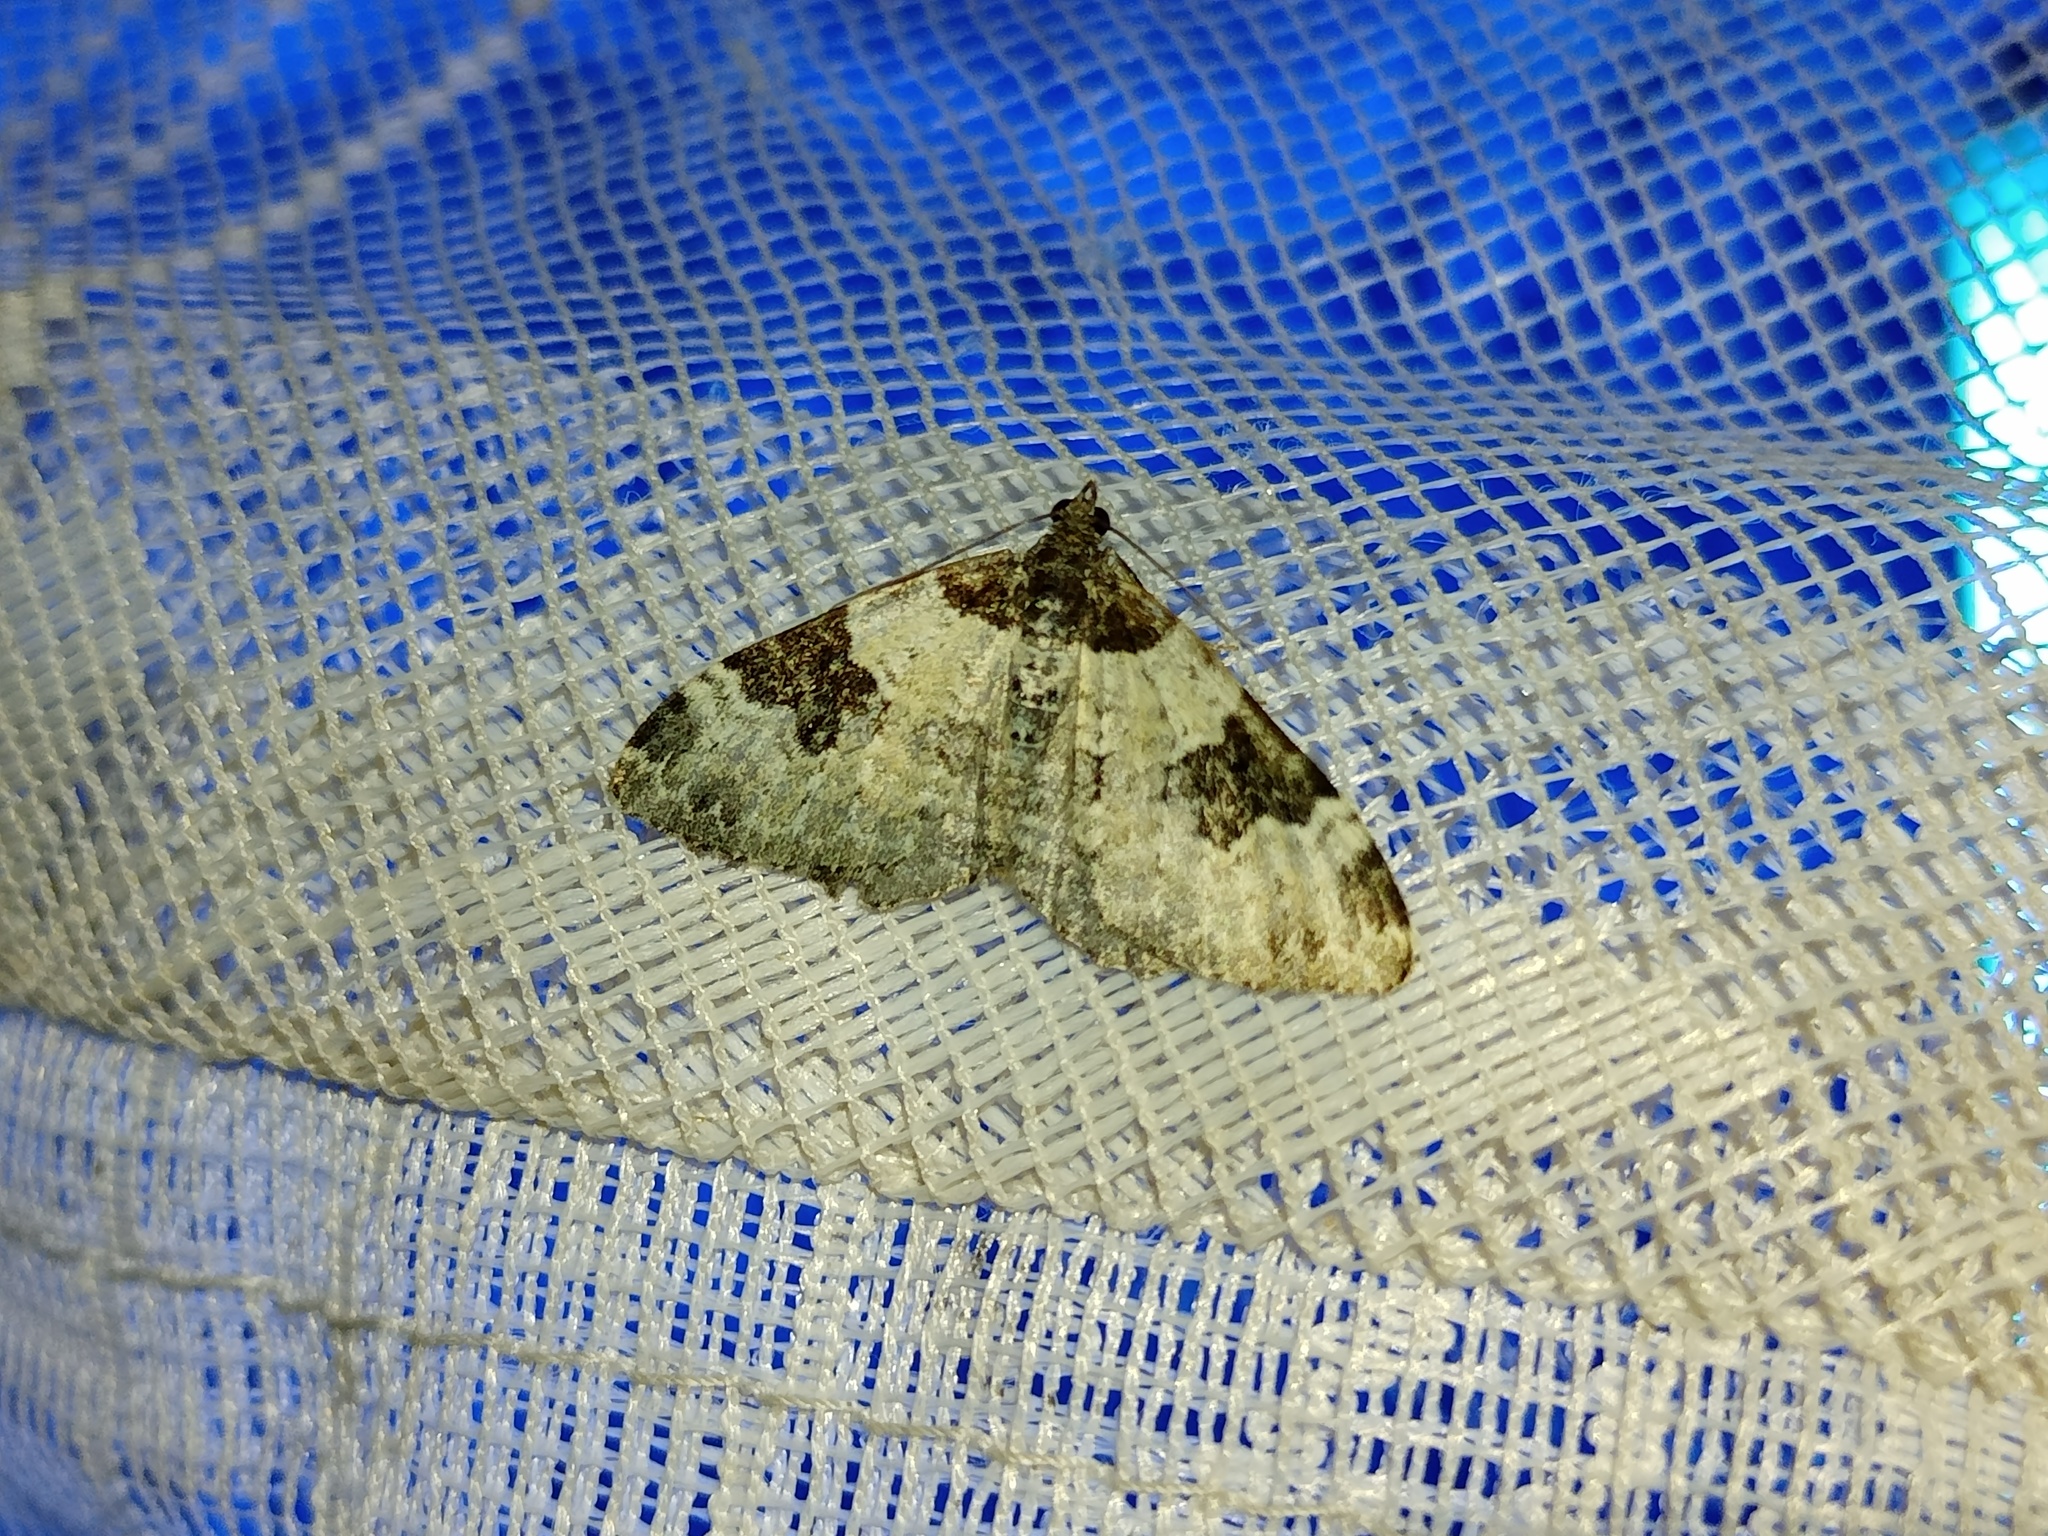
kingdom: Animalia
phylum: Arthropoda
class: Insecta
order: Lepidoptera
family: Geometridae
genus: Xanthorhoe
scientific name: Xanthorhoe fluctuata
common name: Garden carpet
